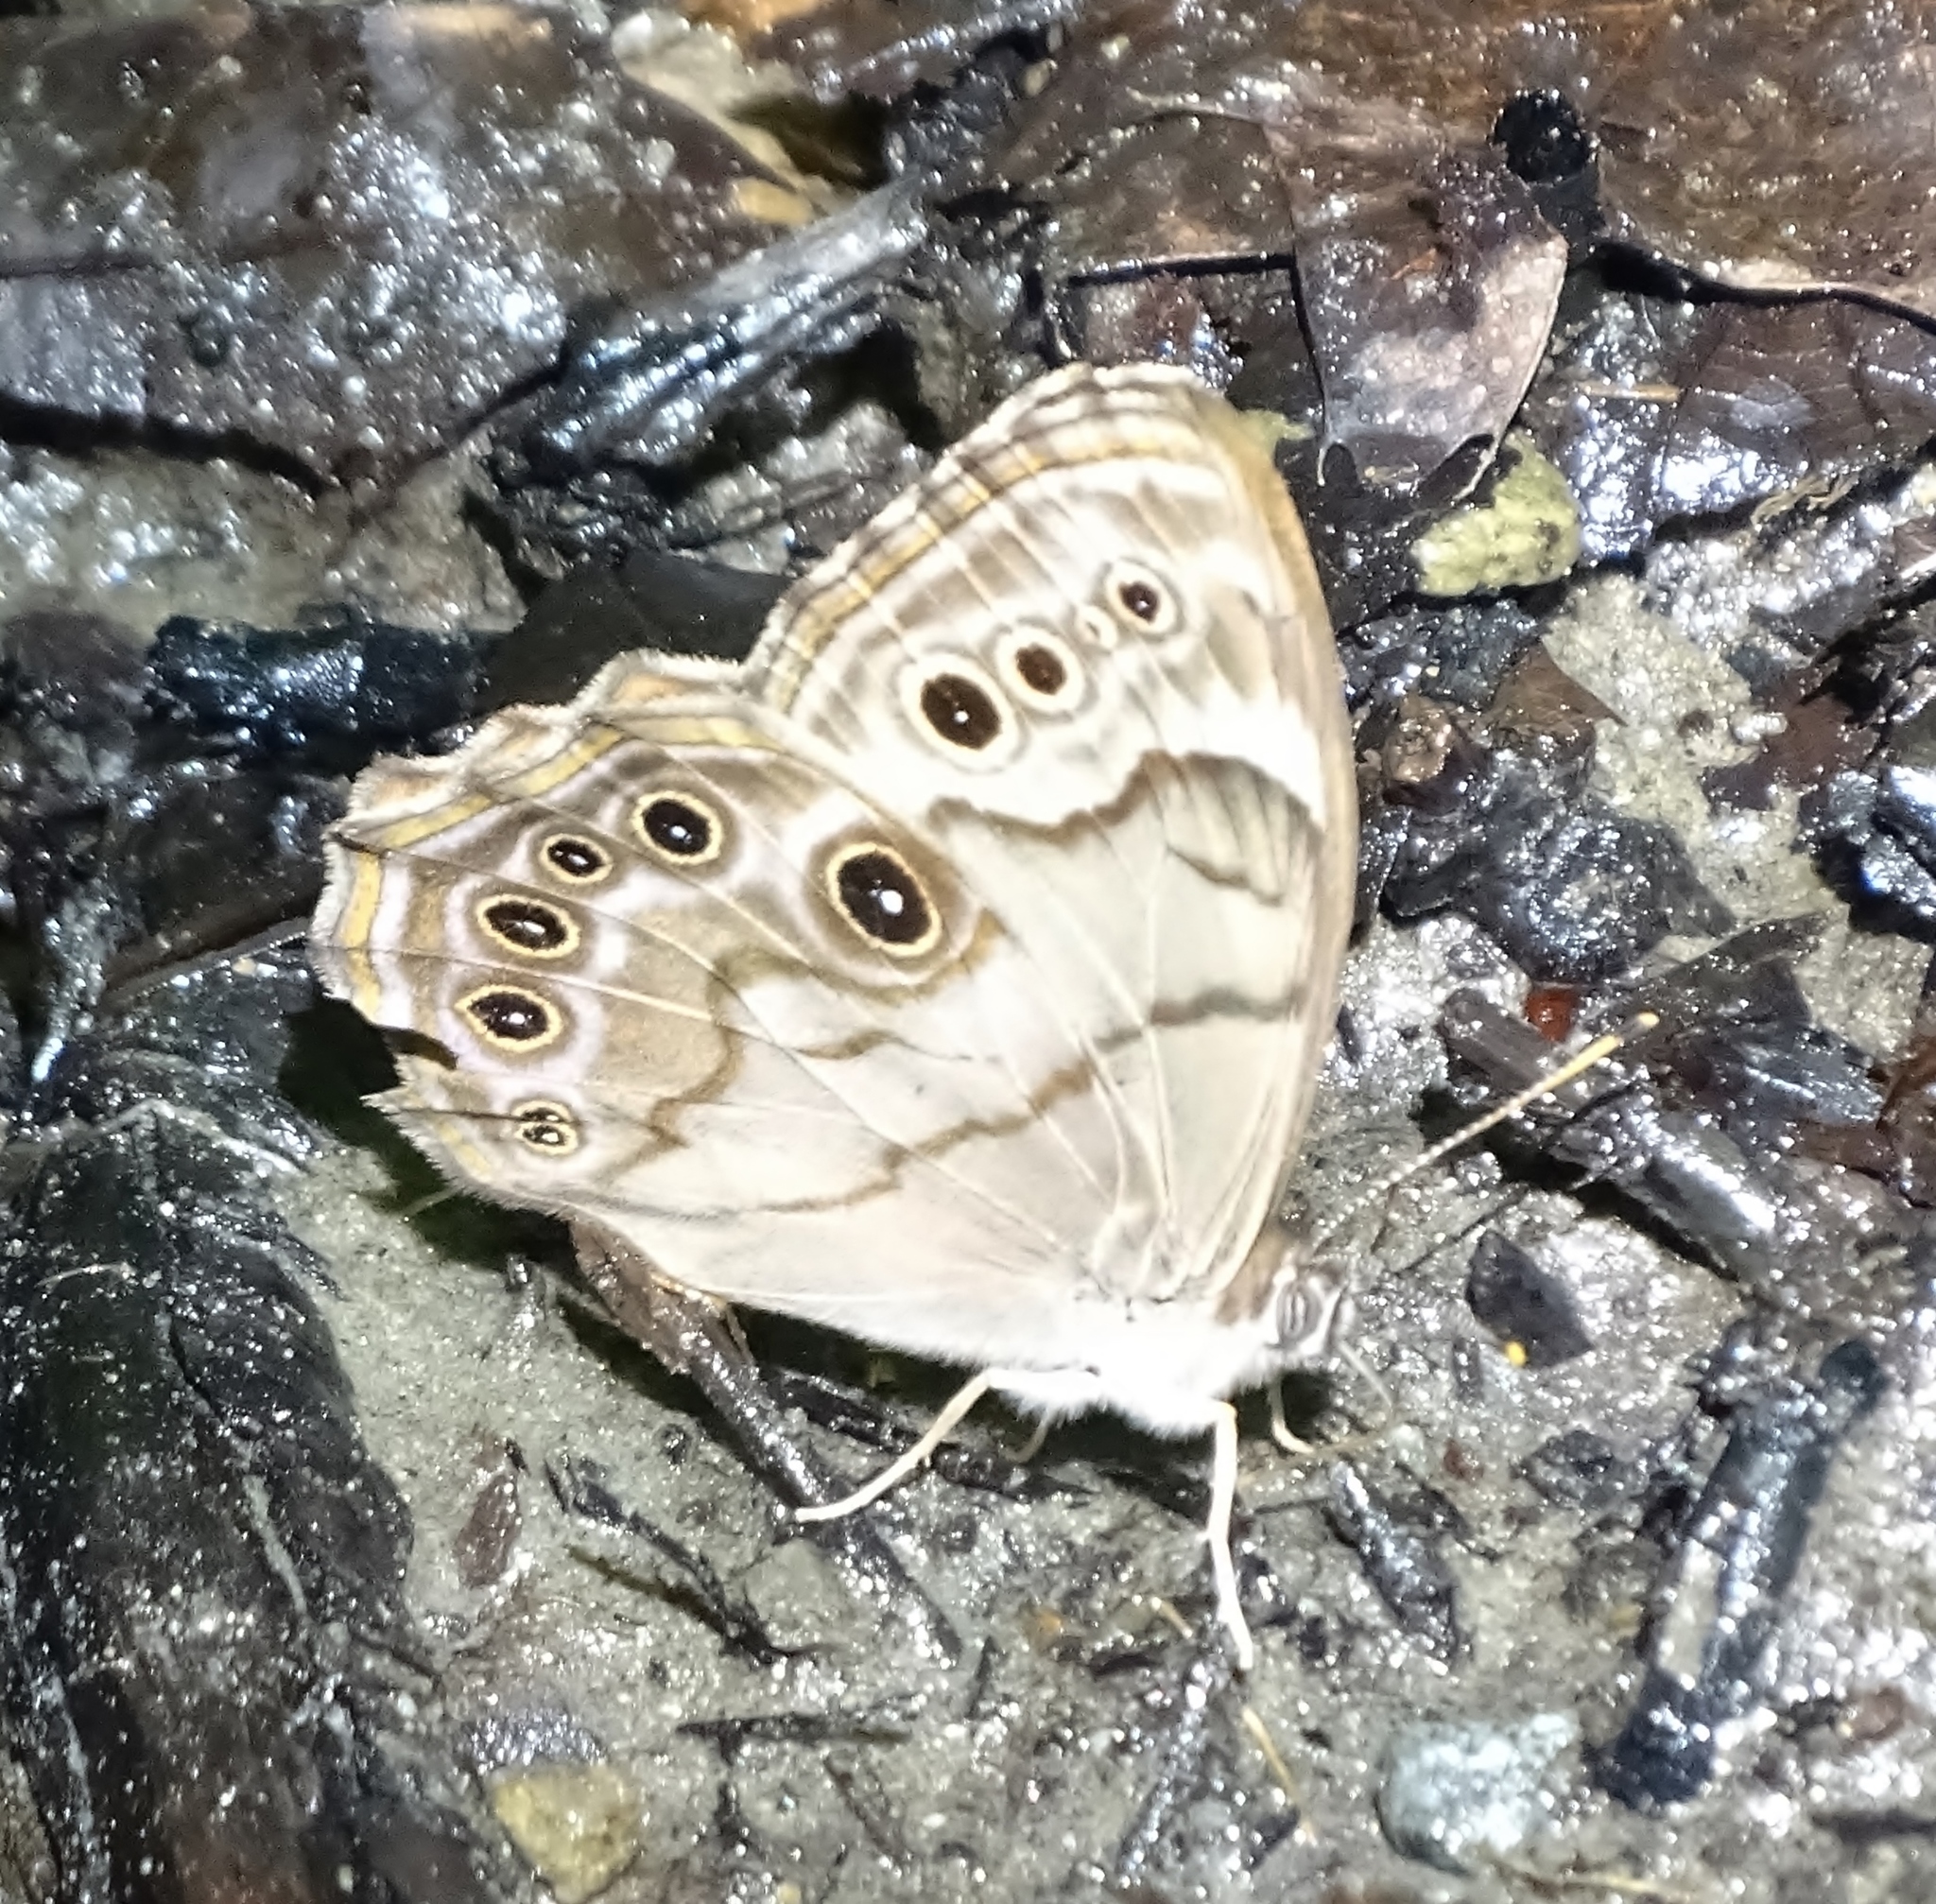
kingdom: Animalia
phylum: Arthropoda
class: Insecta
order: Lepidoptera
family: Nymphalidae
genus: Lethe
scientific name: Lethe anthedon
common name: Northern pearly-eye
